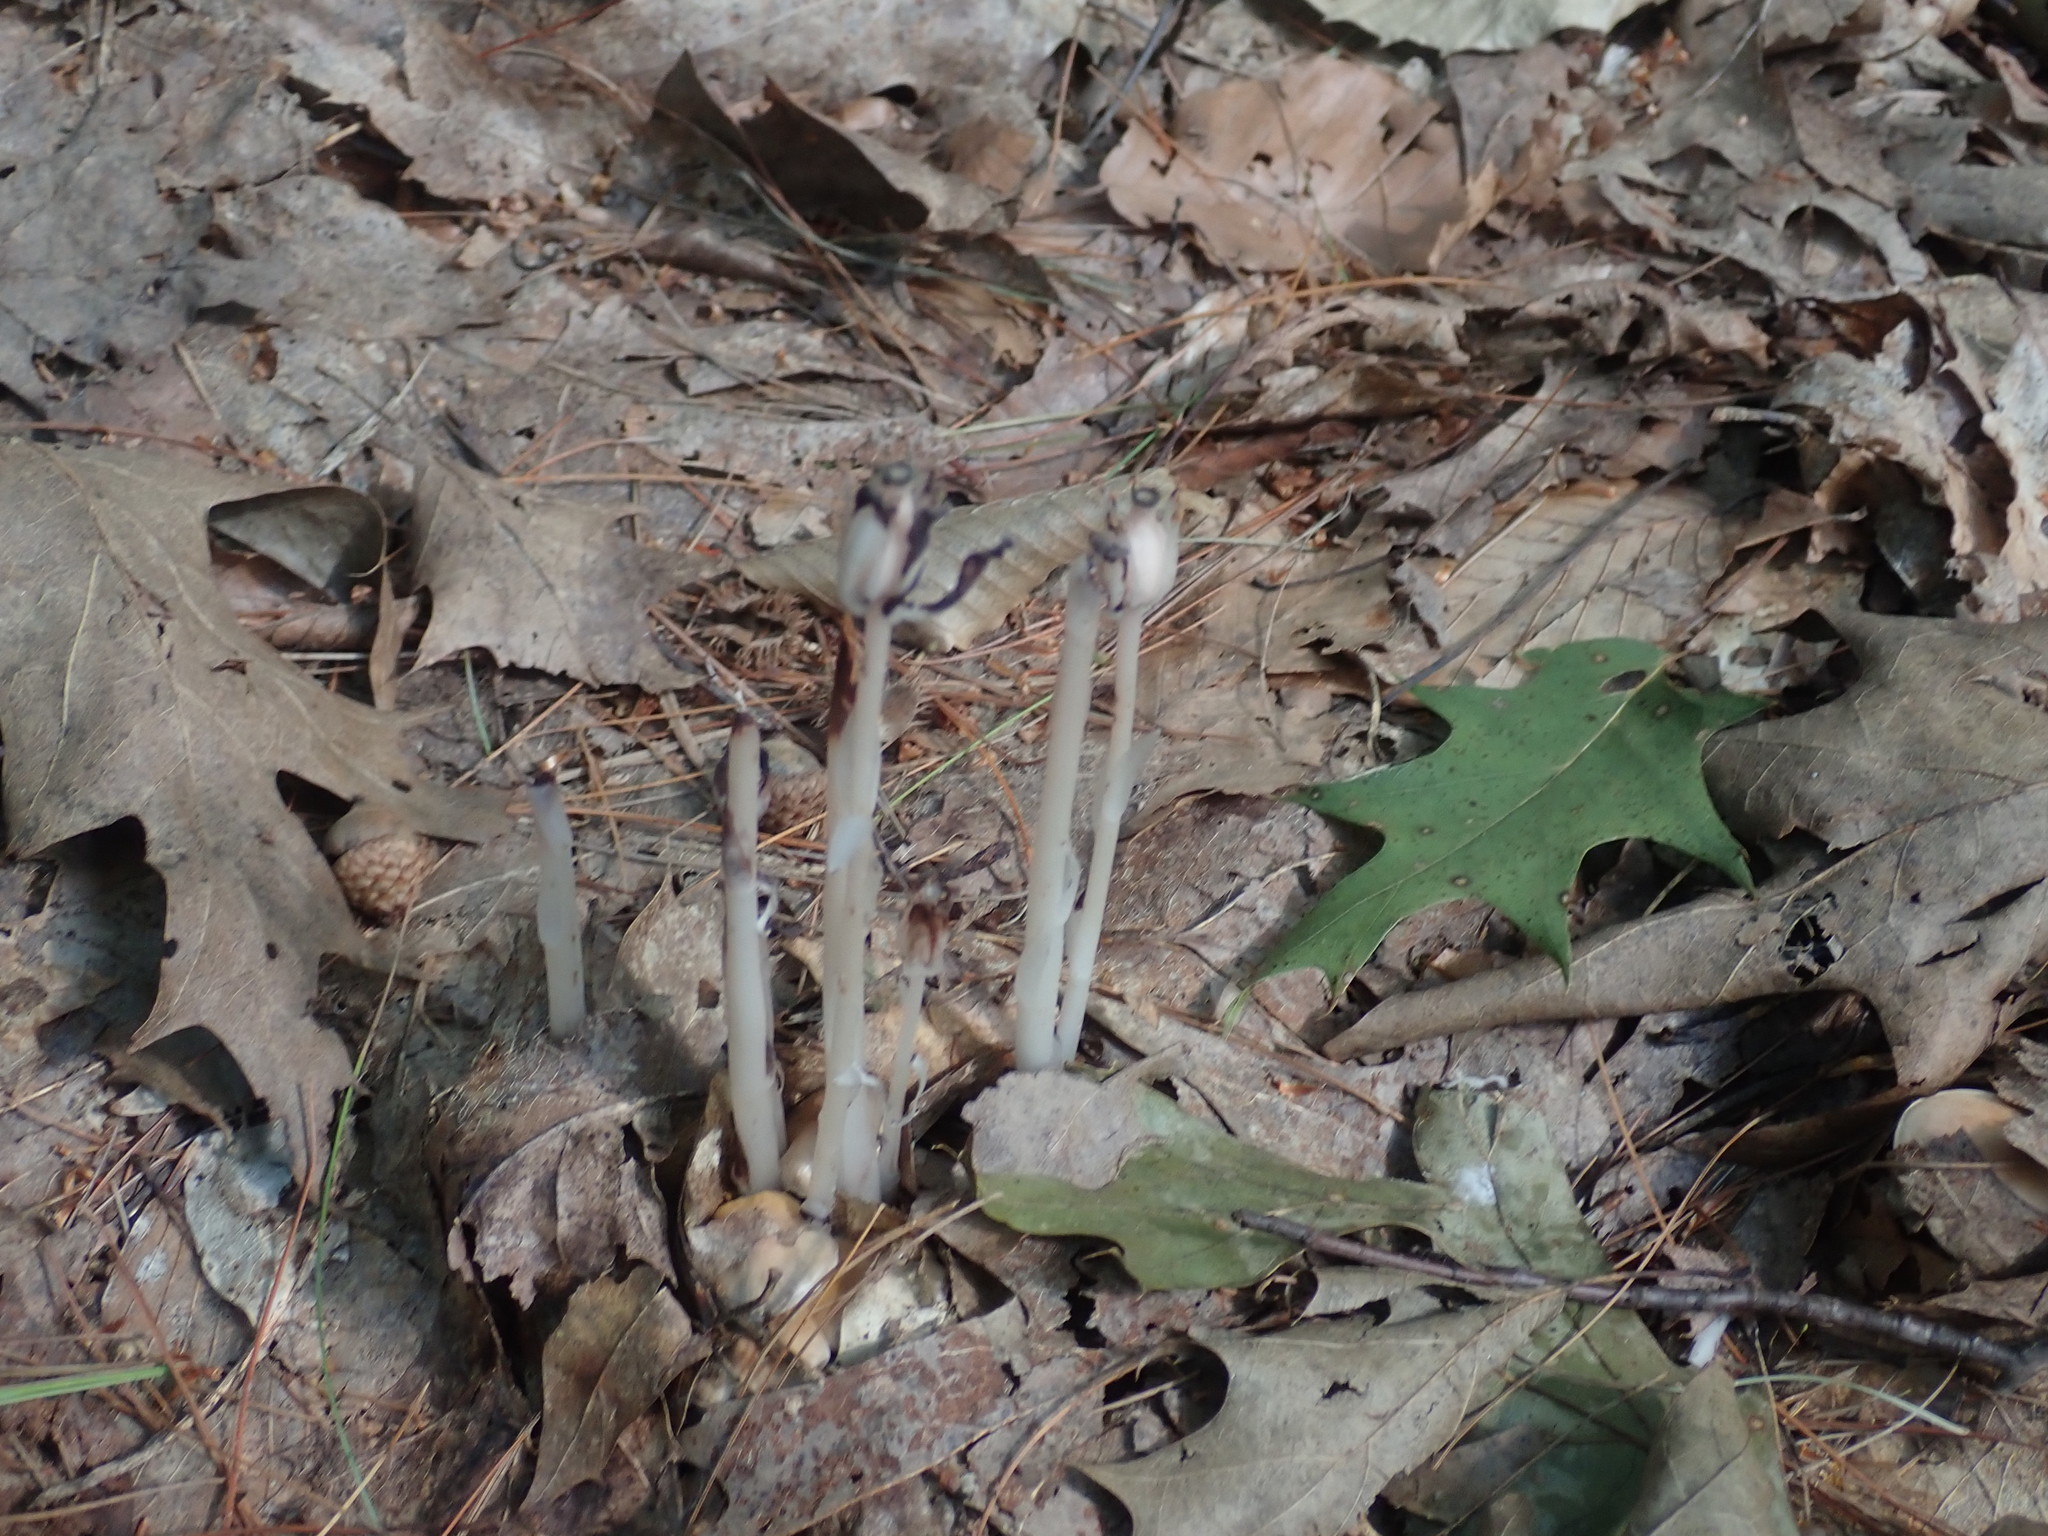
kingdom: Plantae
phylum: Tracheophyta
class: Magnoliopsida
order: Ericales
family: Ericaceae
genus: Monotropa
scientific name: Monotropa uniflora
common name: Convulsion root
